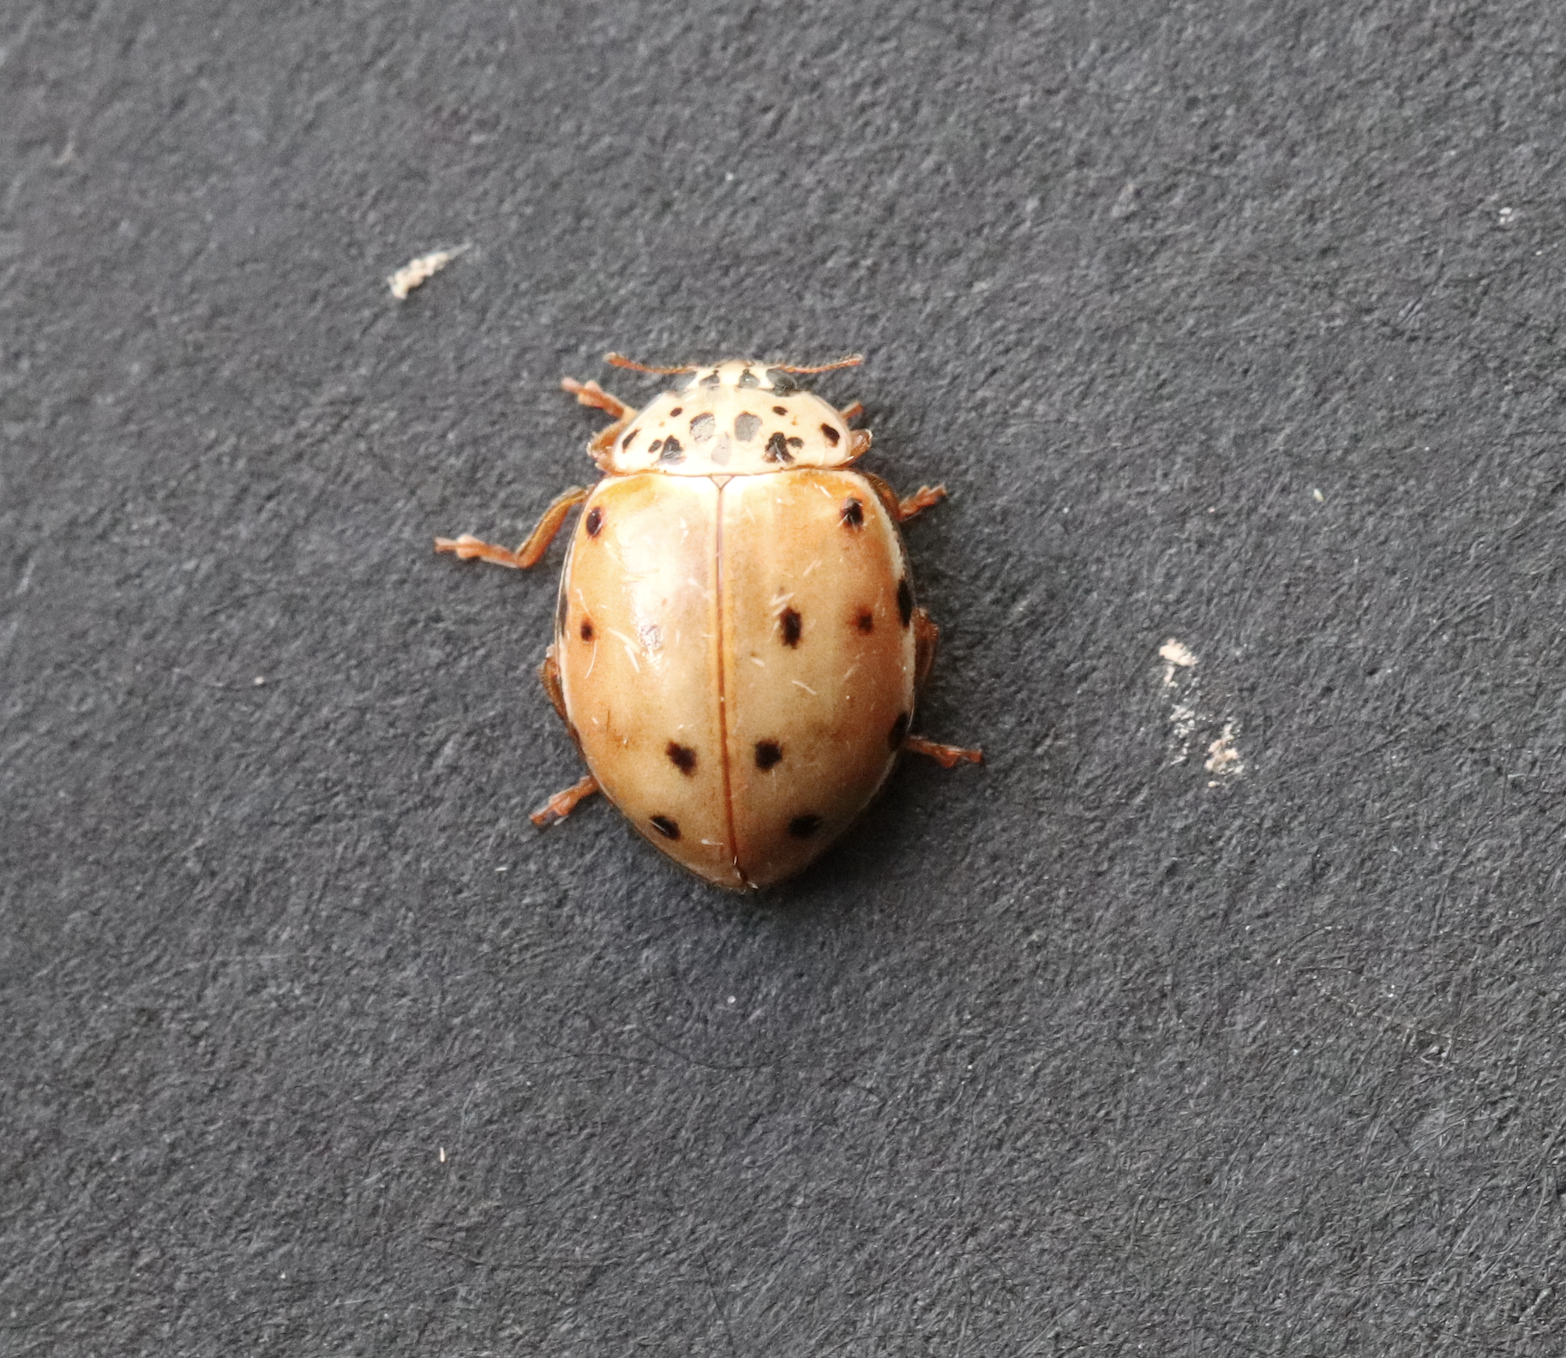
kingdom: Animalia
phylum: Arthropoda
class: Insecta
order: Coleoptera
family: Coccinellidae
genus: Harmonia
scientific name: Harmonia quadripunctata
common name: Cream-streaked ladybird
